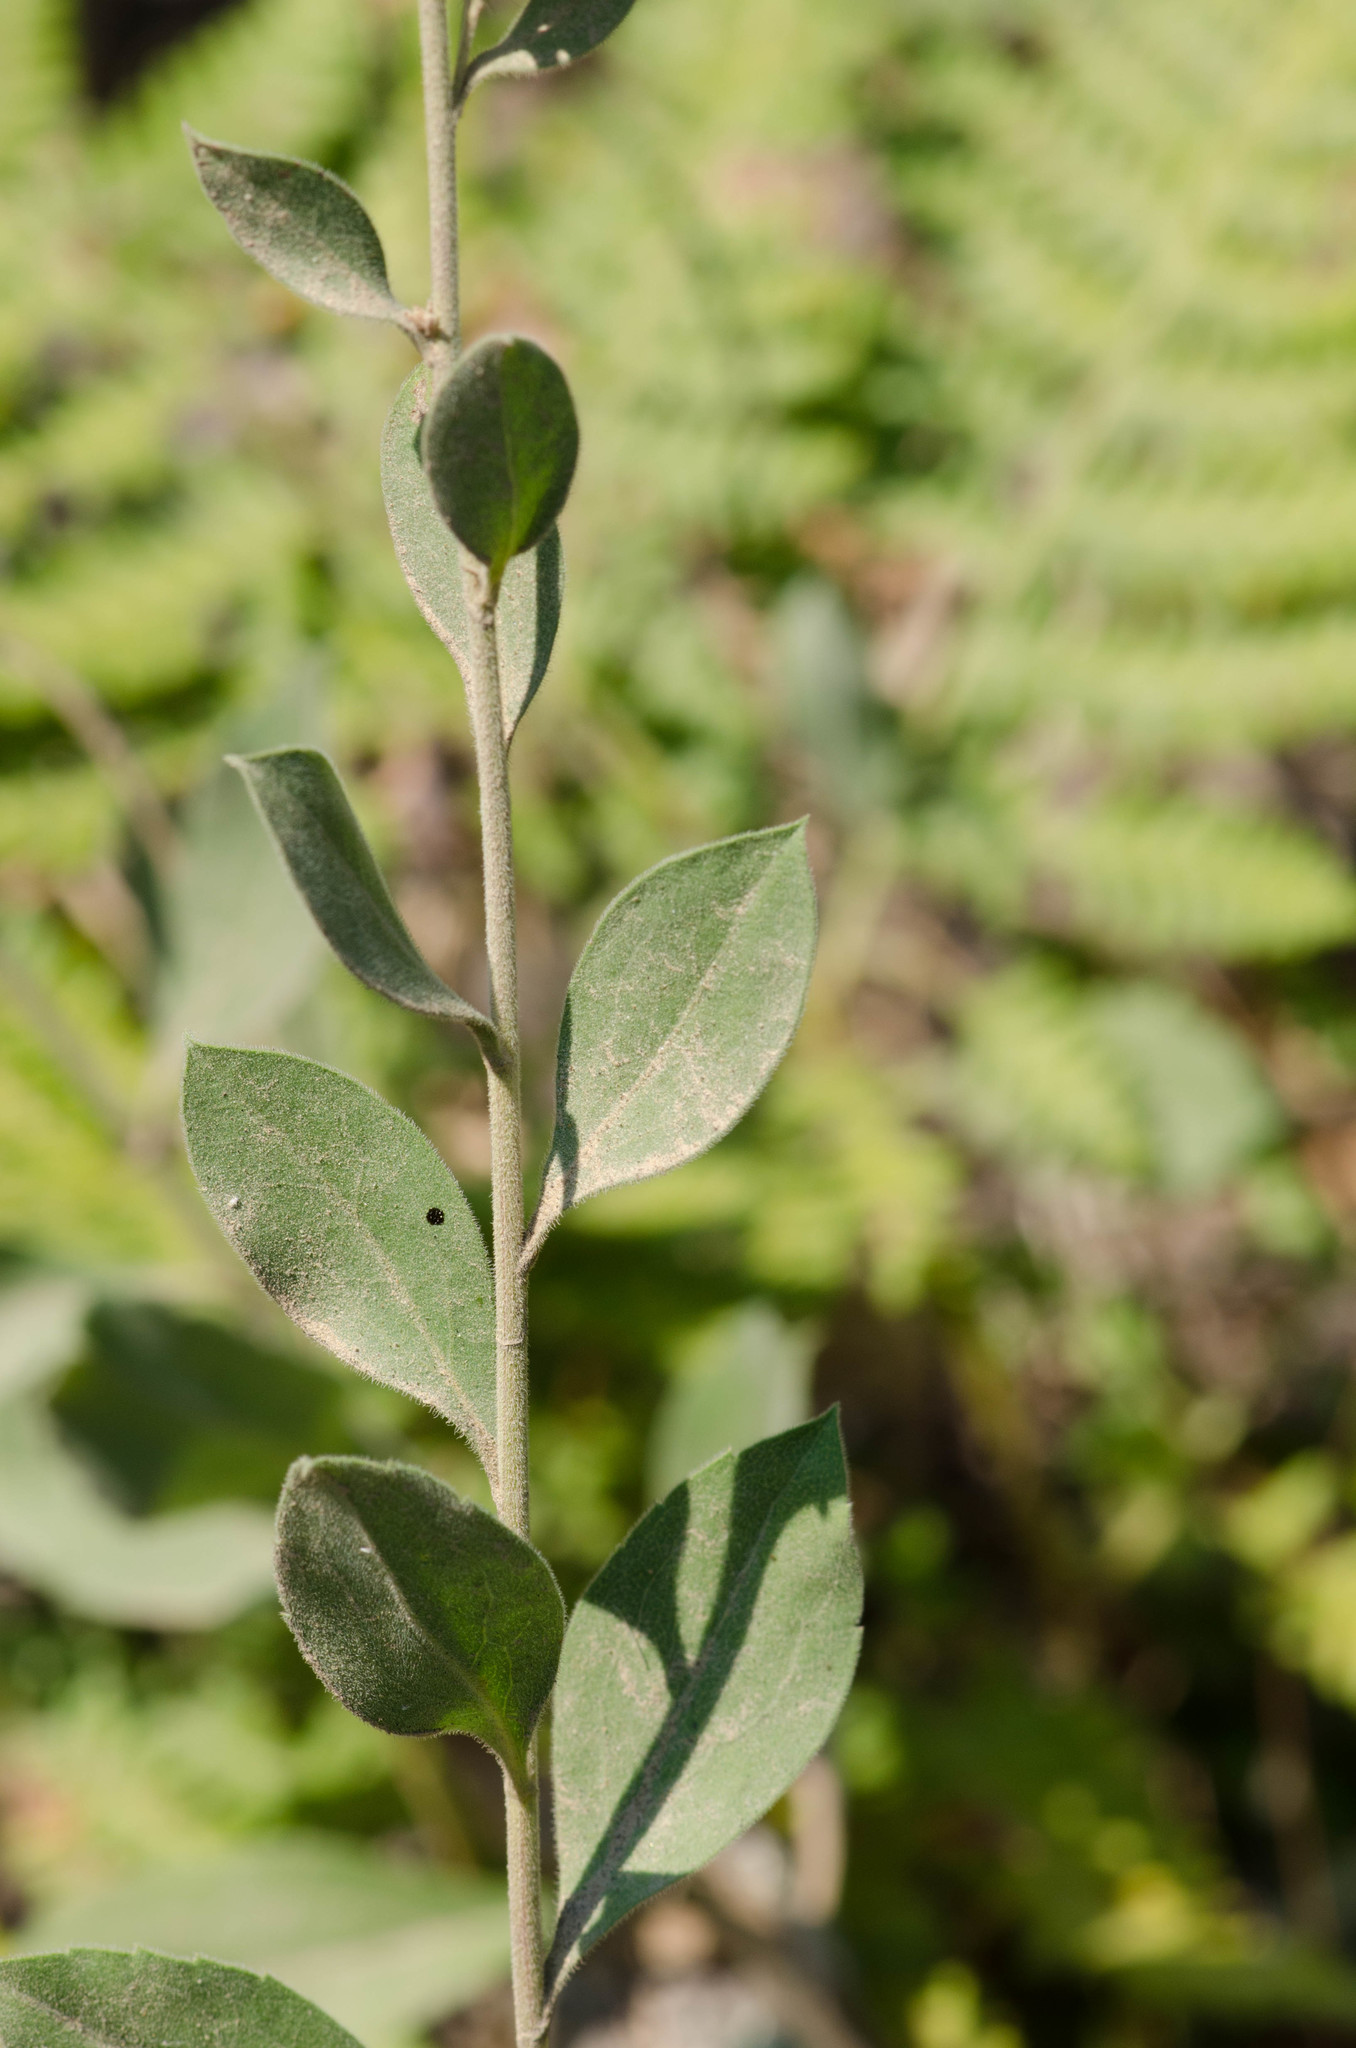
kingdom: Plantae
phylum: Tracheophyta
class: Magnoliopsida
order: Asterales
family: Asteraceae
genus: Solidago
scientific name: Solidago velutina
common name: Three-nerve goldenrod
